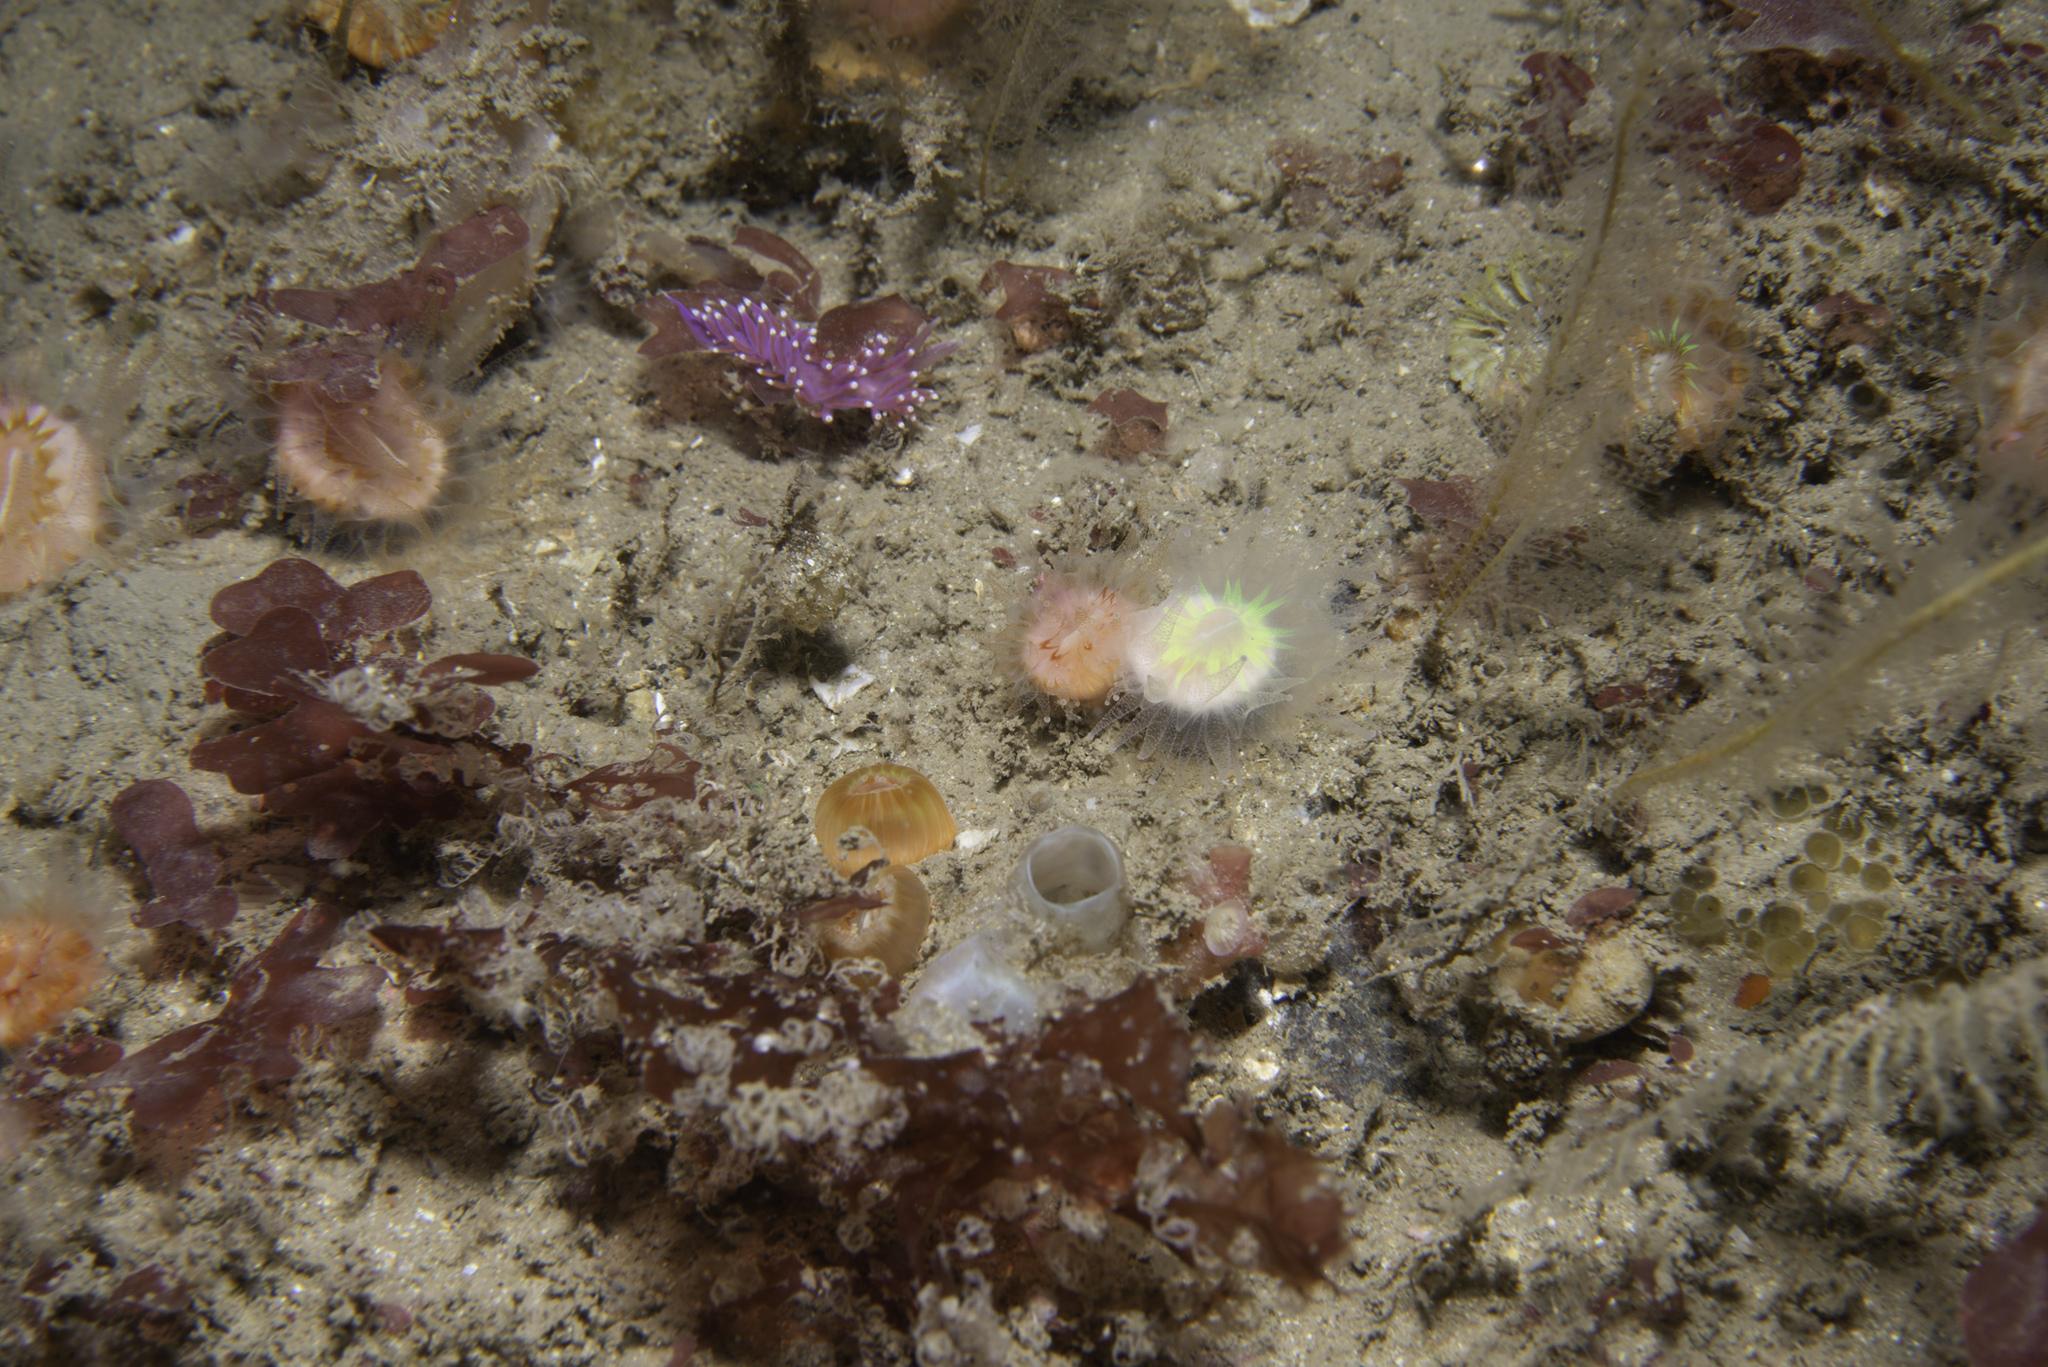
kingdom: Animalia
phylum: Mollusca
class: Gastropoda
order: Nudibranchia
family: Flabellinidae
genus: Edmundsella
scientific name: Edmundsella pedata
